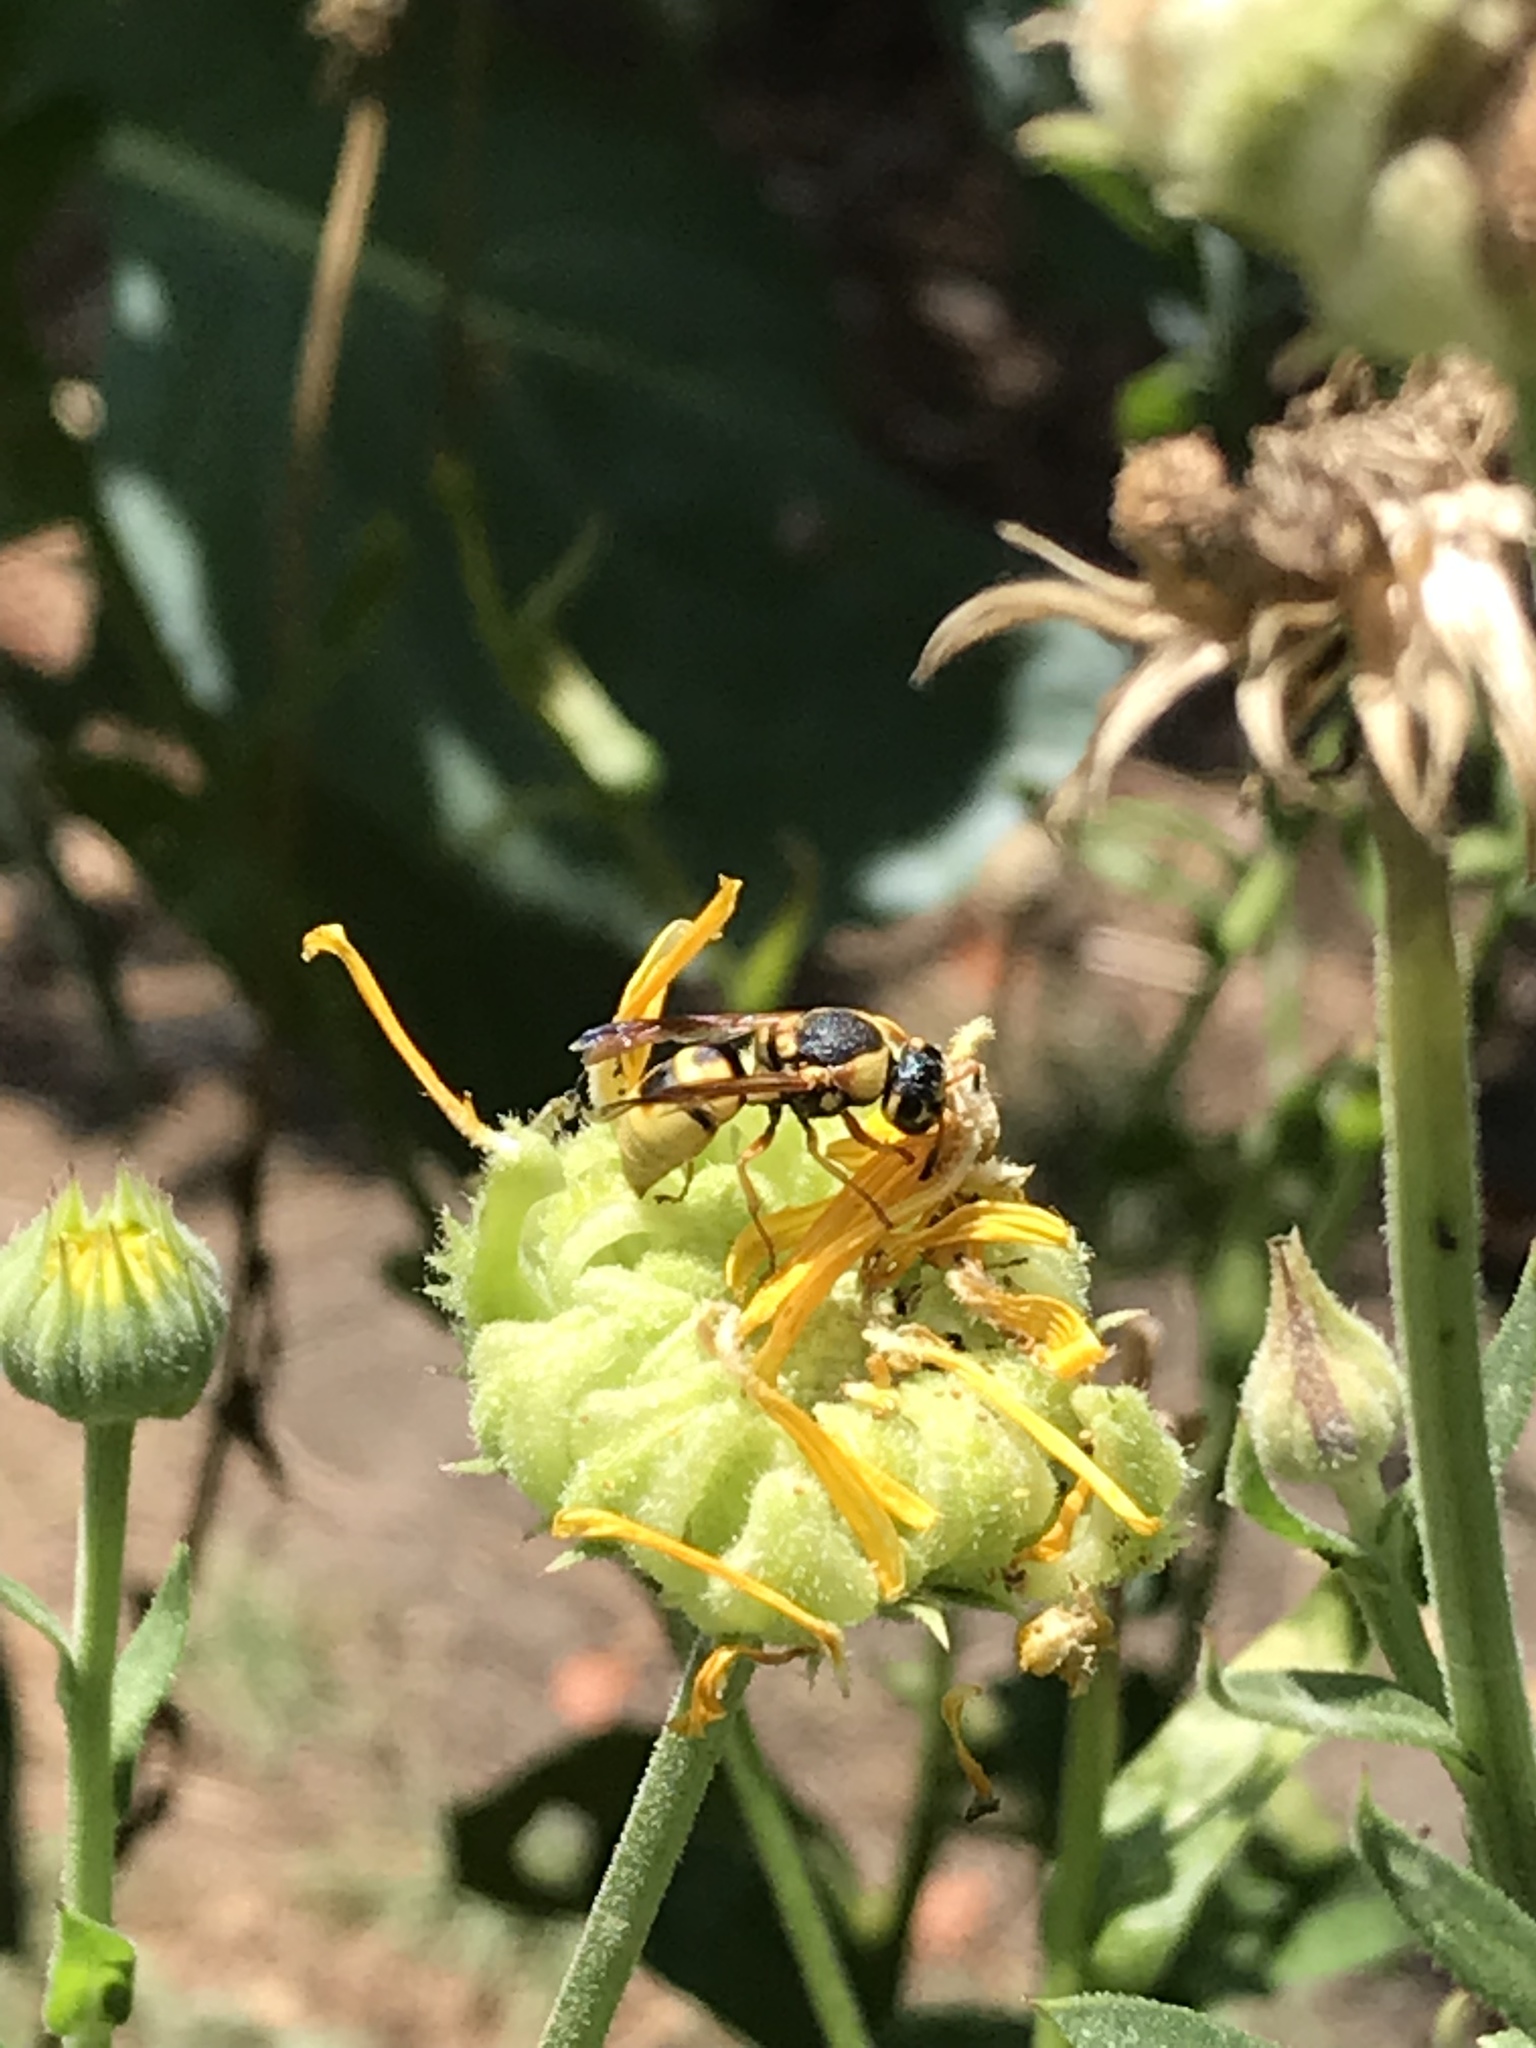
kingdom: Animalia
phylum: Arthropoda
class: Insecta
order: Hymenoptera
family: Eumenidae
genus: Euodynerus
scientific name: Euodynerus hidalgo
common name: Wasp
